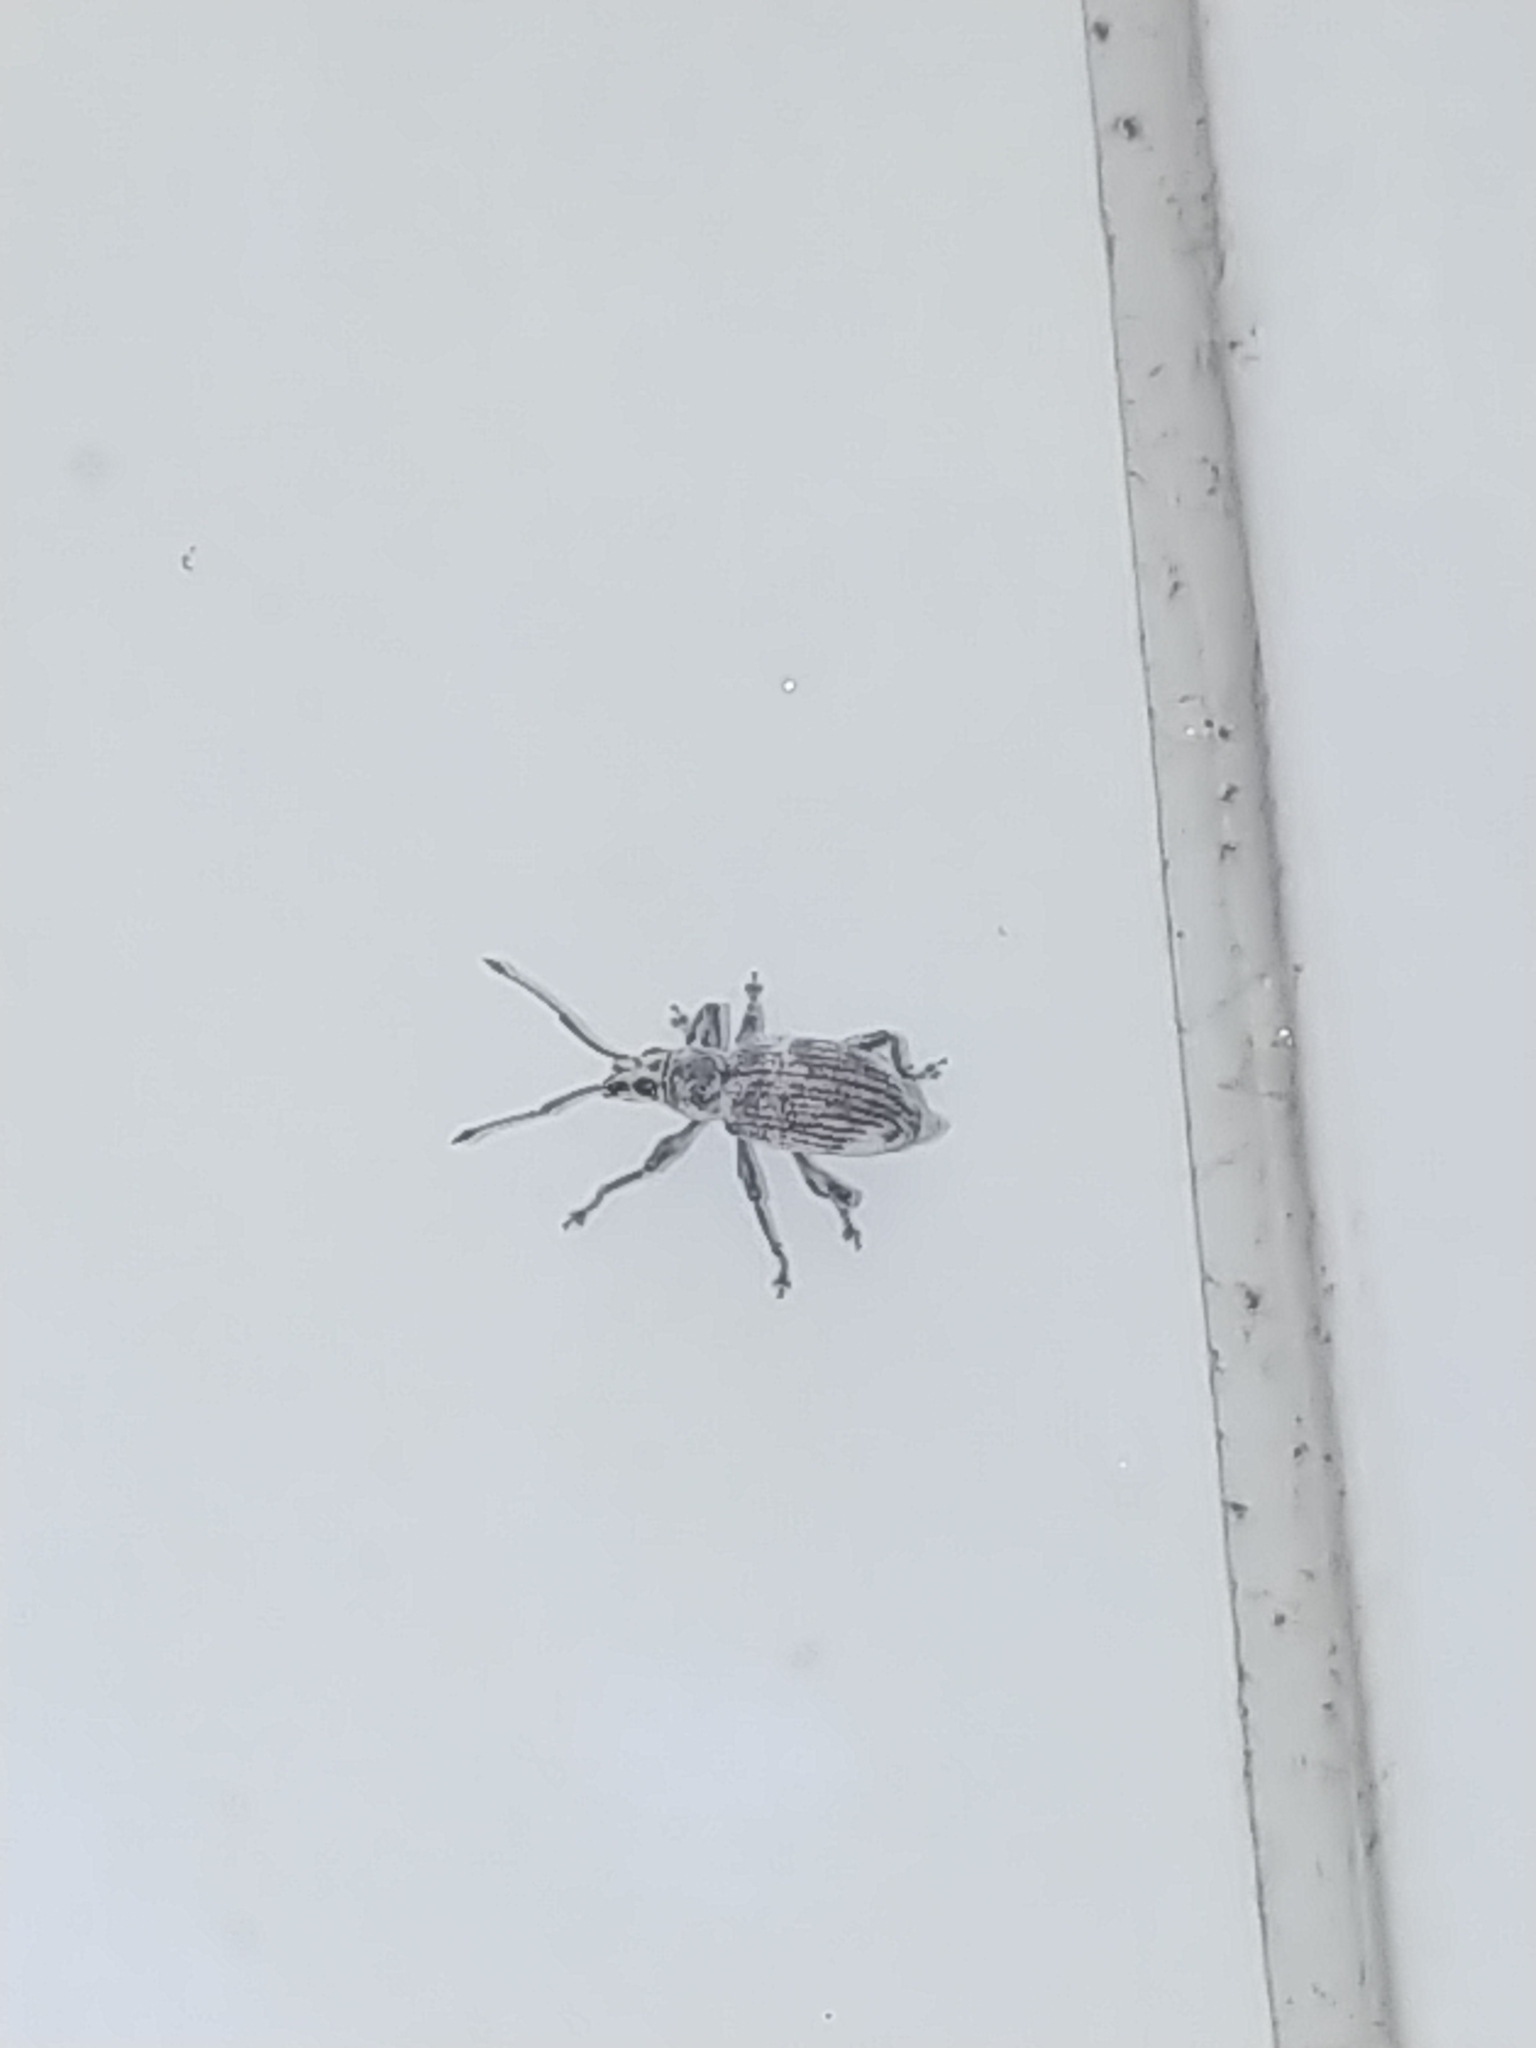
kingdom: Animalia
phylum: Arthropoda
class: Insecta
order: Coleoptera
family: Curculionidae
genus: Myllocerus
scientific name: Myllocerus undecimpustulatus
